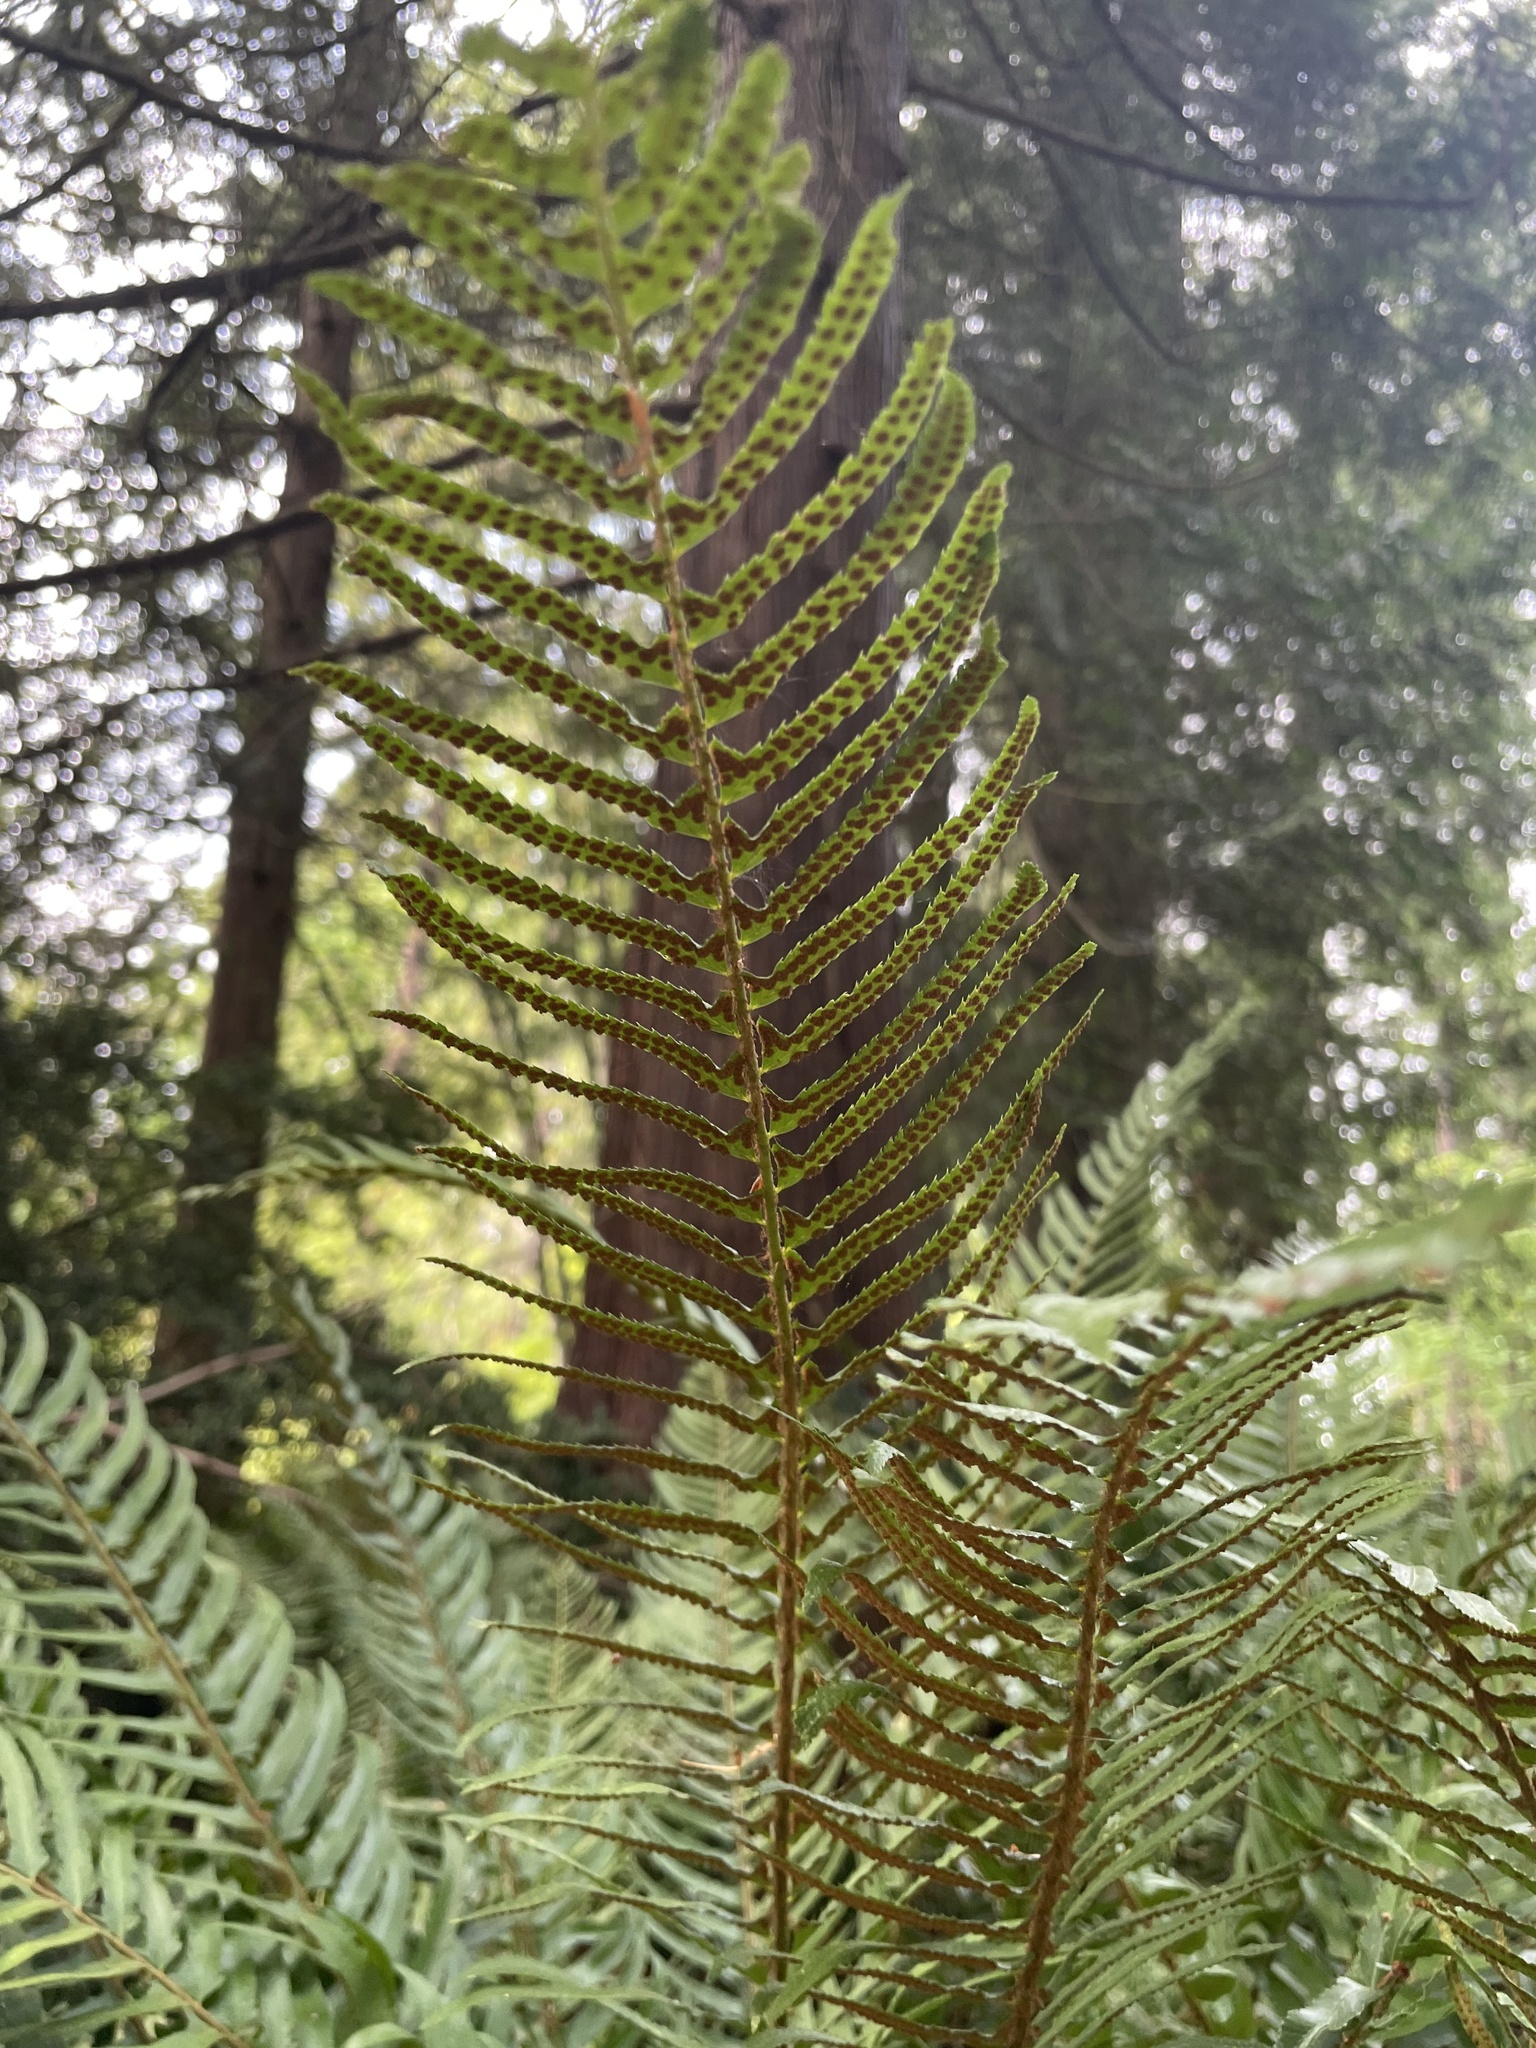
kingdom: Plantae
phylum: Tracheophyta
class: Polypodiopsida
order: Polypodiales
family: Dryopteridaceae
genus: Polystichum
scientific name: Polystichum munitum
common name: Western sword-fern
